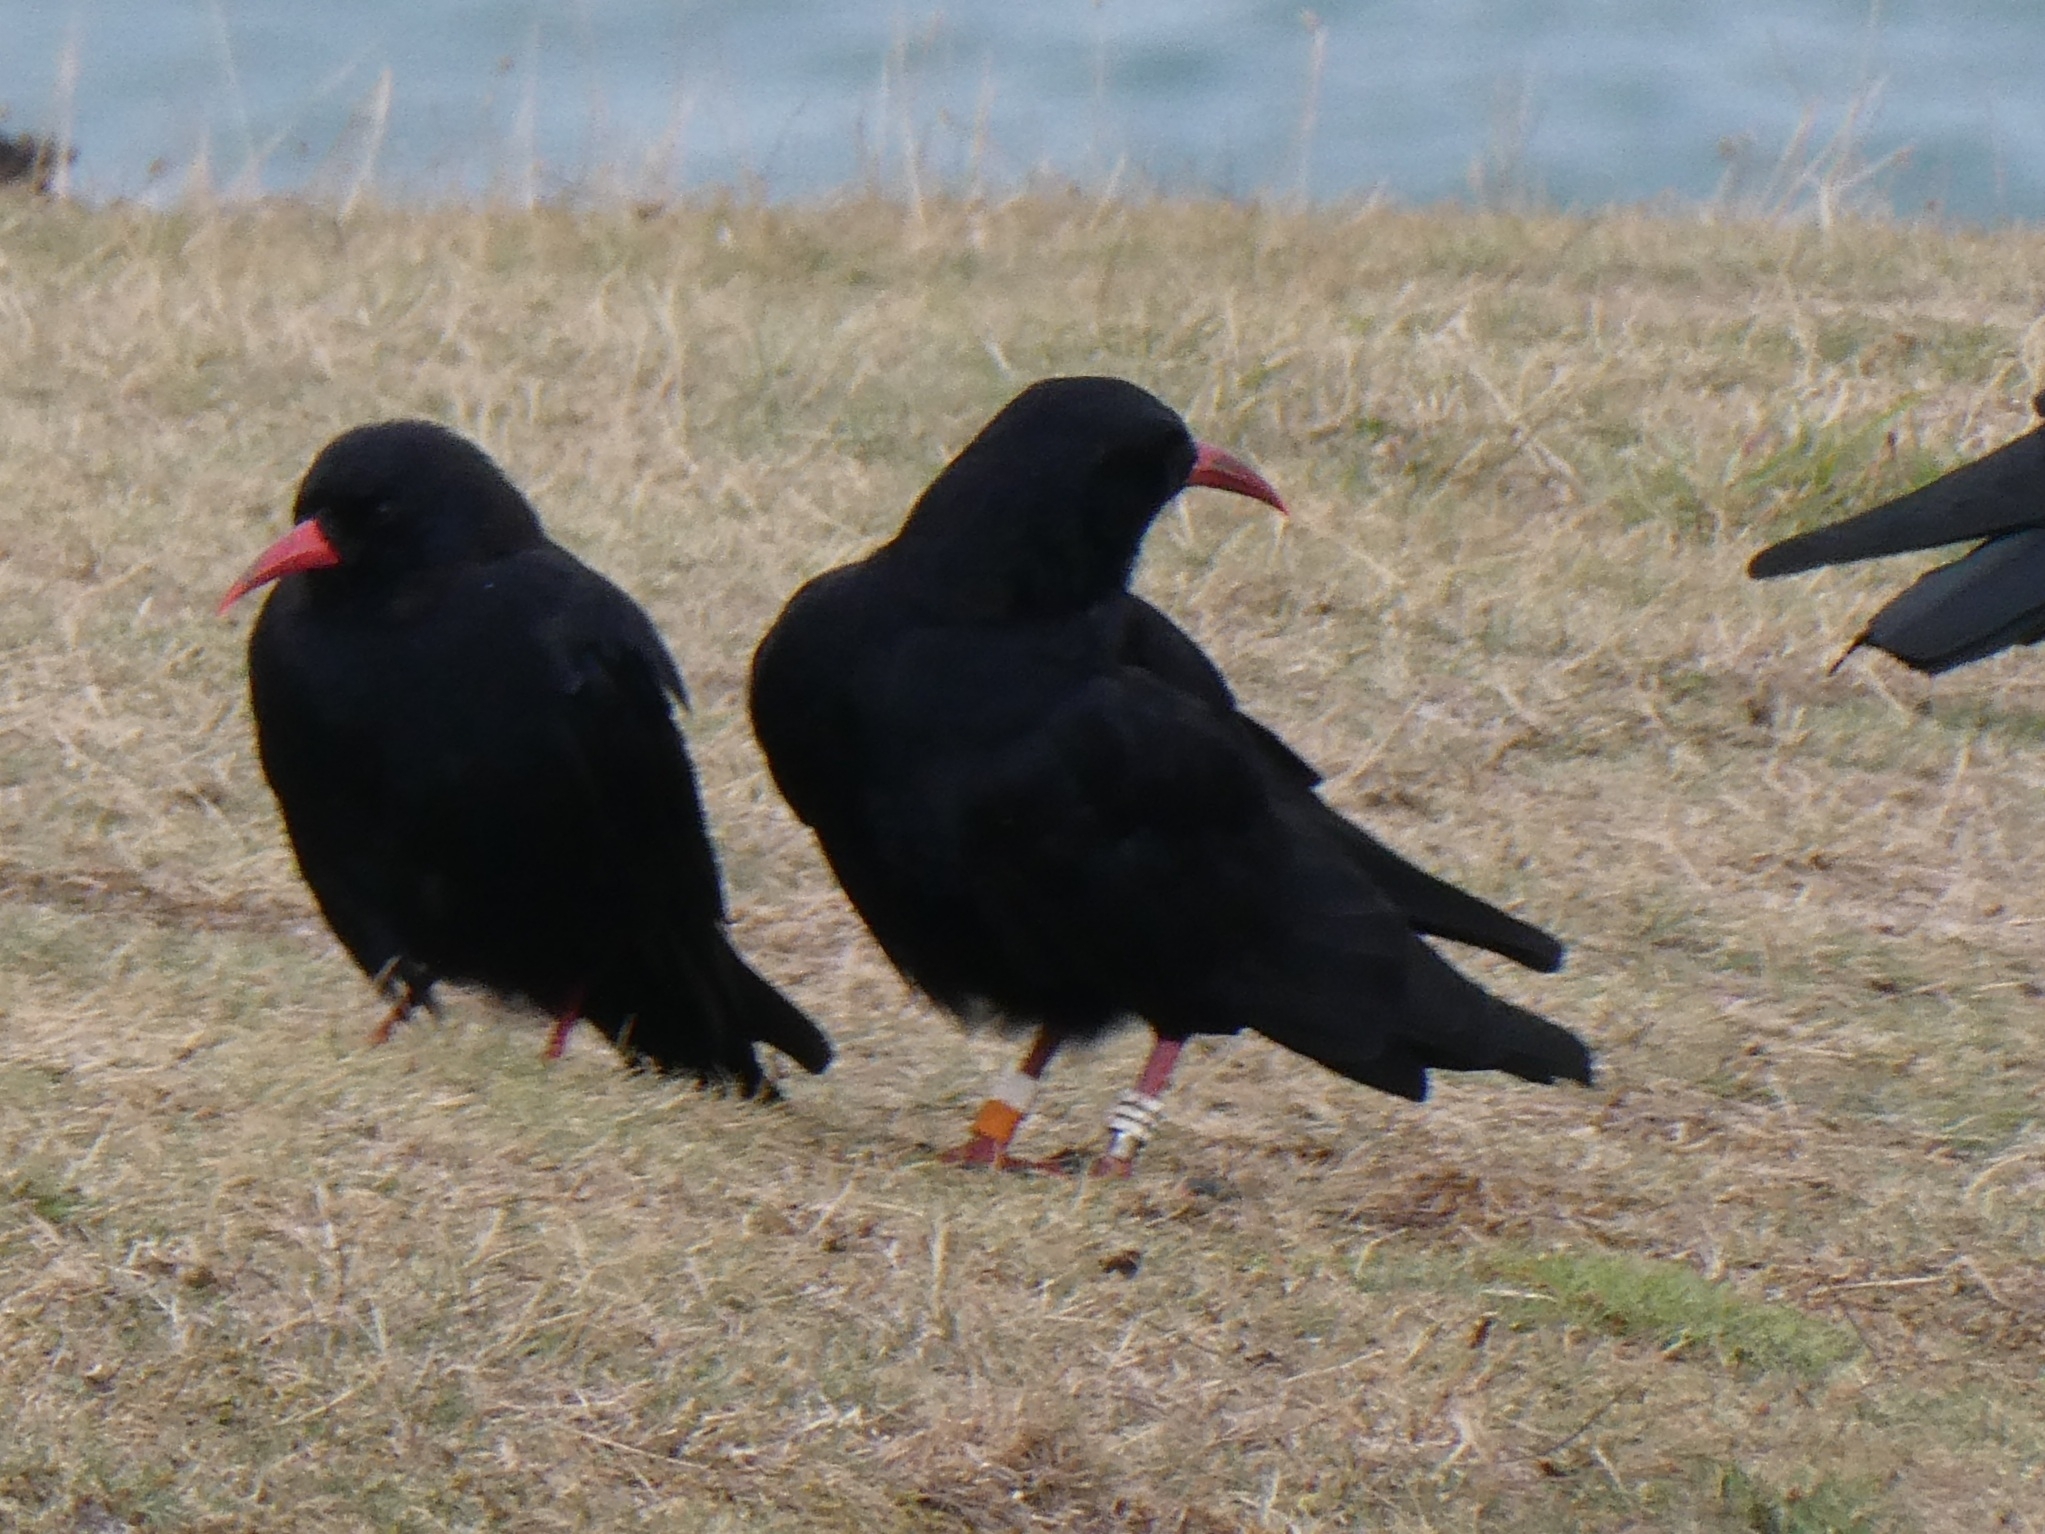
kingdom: Animalia
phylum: Chordata
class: Aves
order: Passeriformes
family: Corvidae
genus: Pyrrhocorax
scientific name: Pyrrhocorax pyrrhocorax
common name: Red-billed chough
